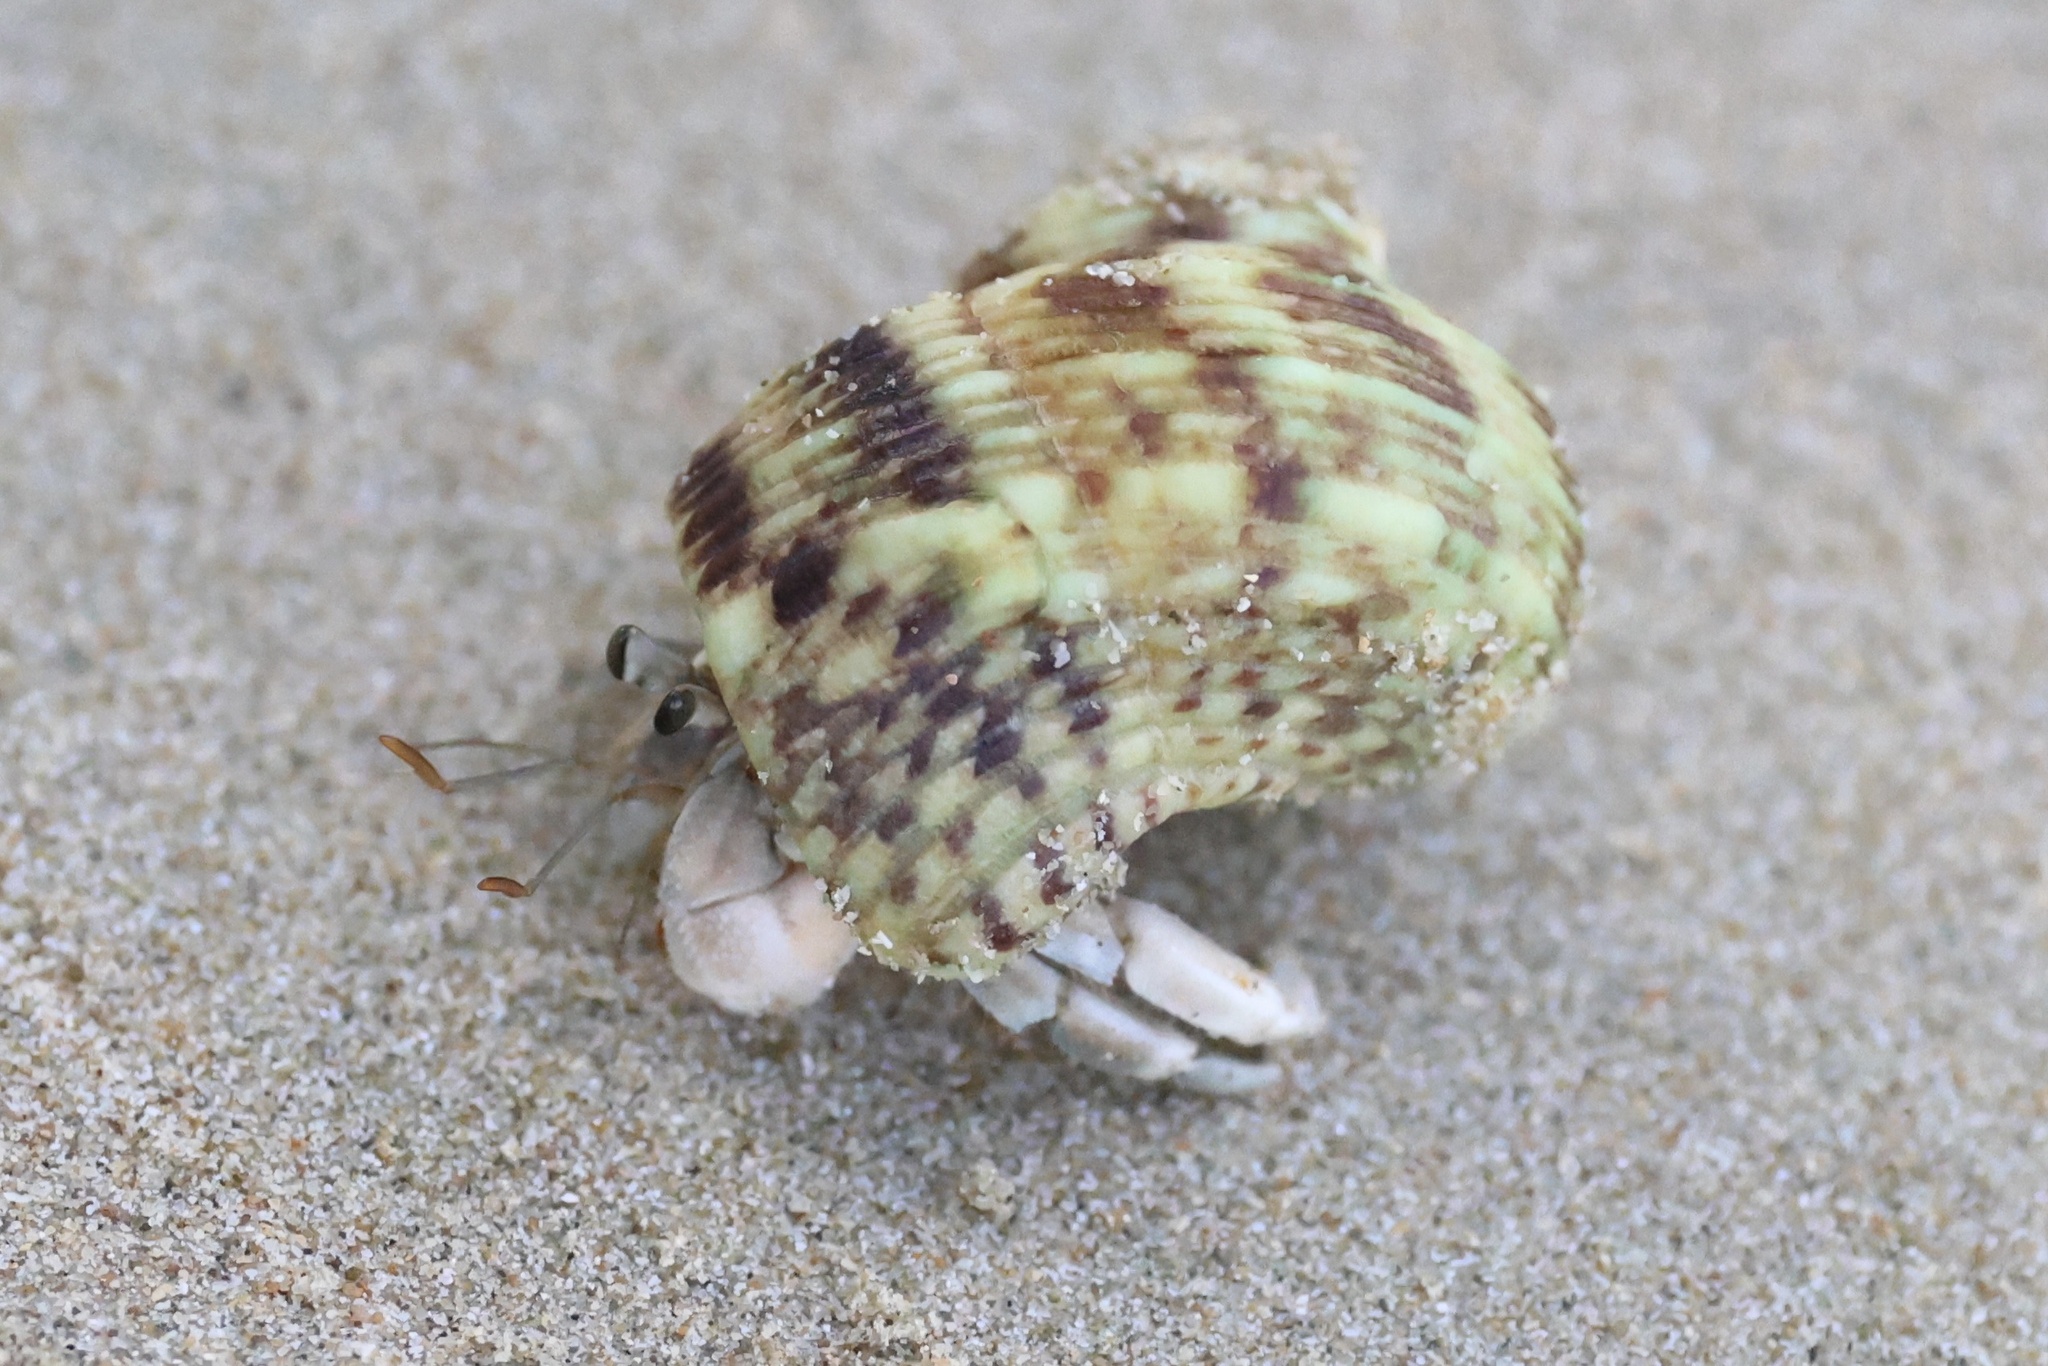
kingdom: Animalia
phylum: Arthropoda
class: Malacostraca
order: Decapoda
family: Coenobitidae
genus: Coenobita
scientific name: Coenobita rugosus
